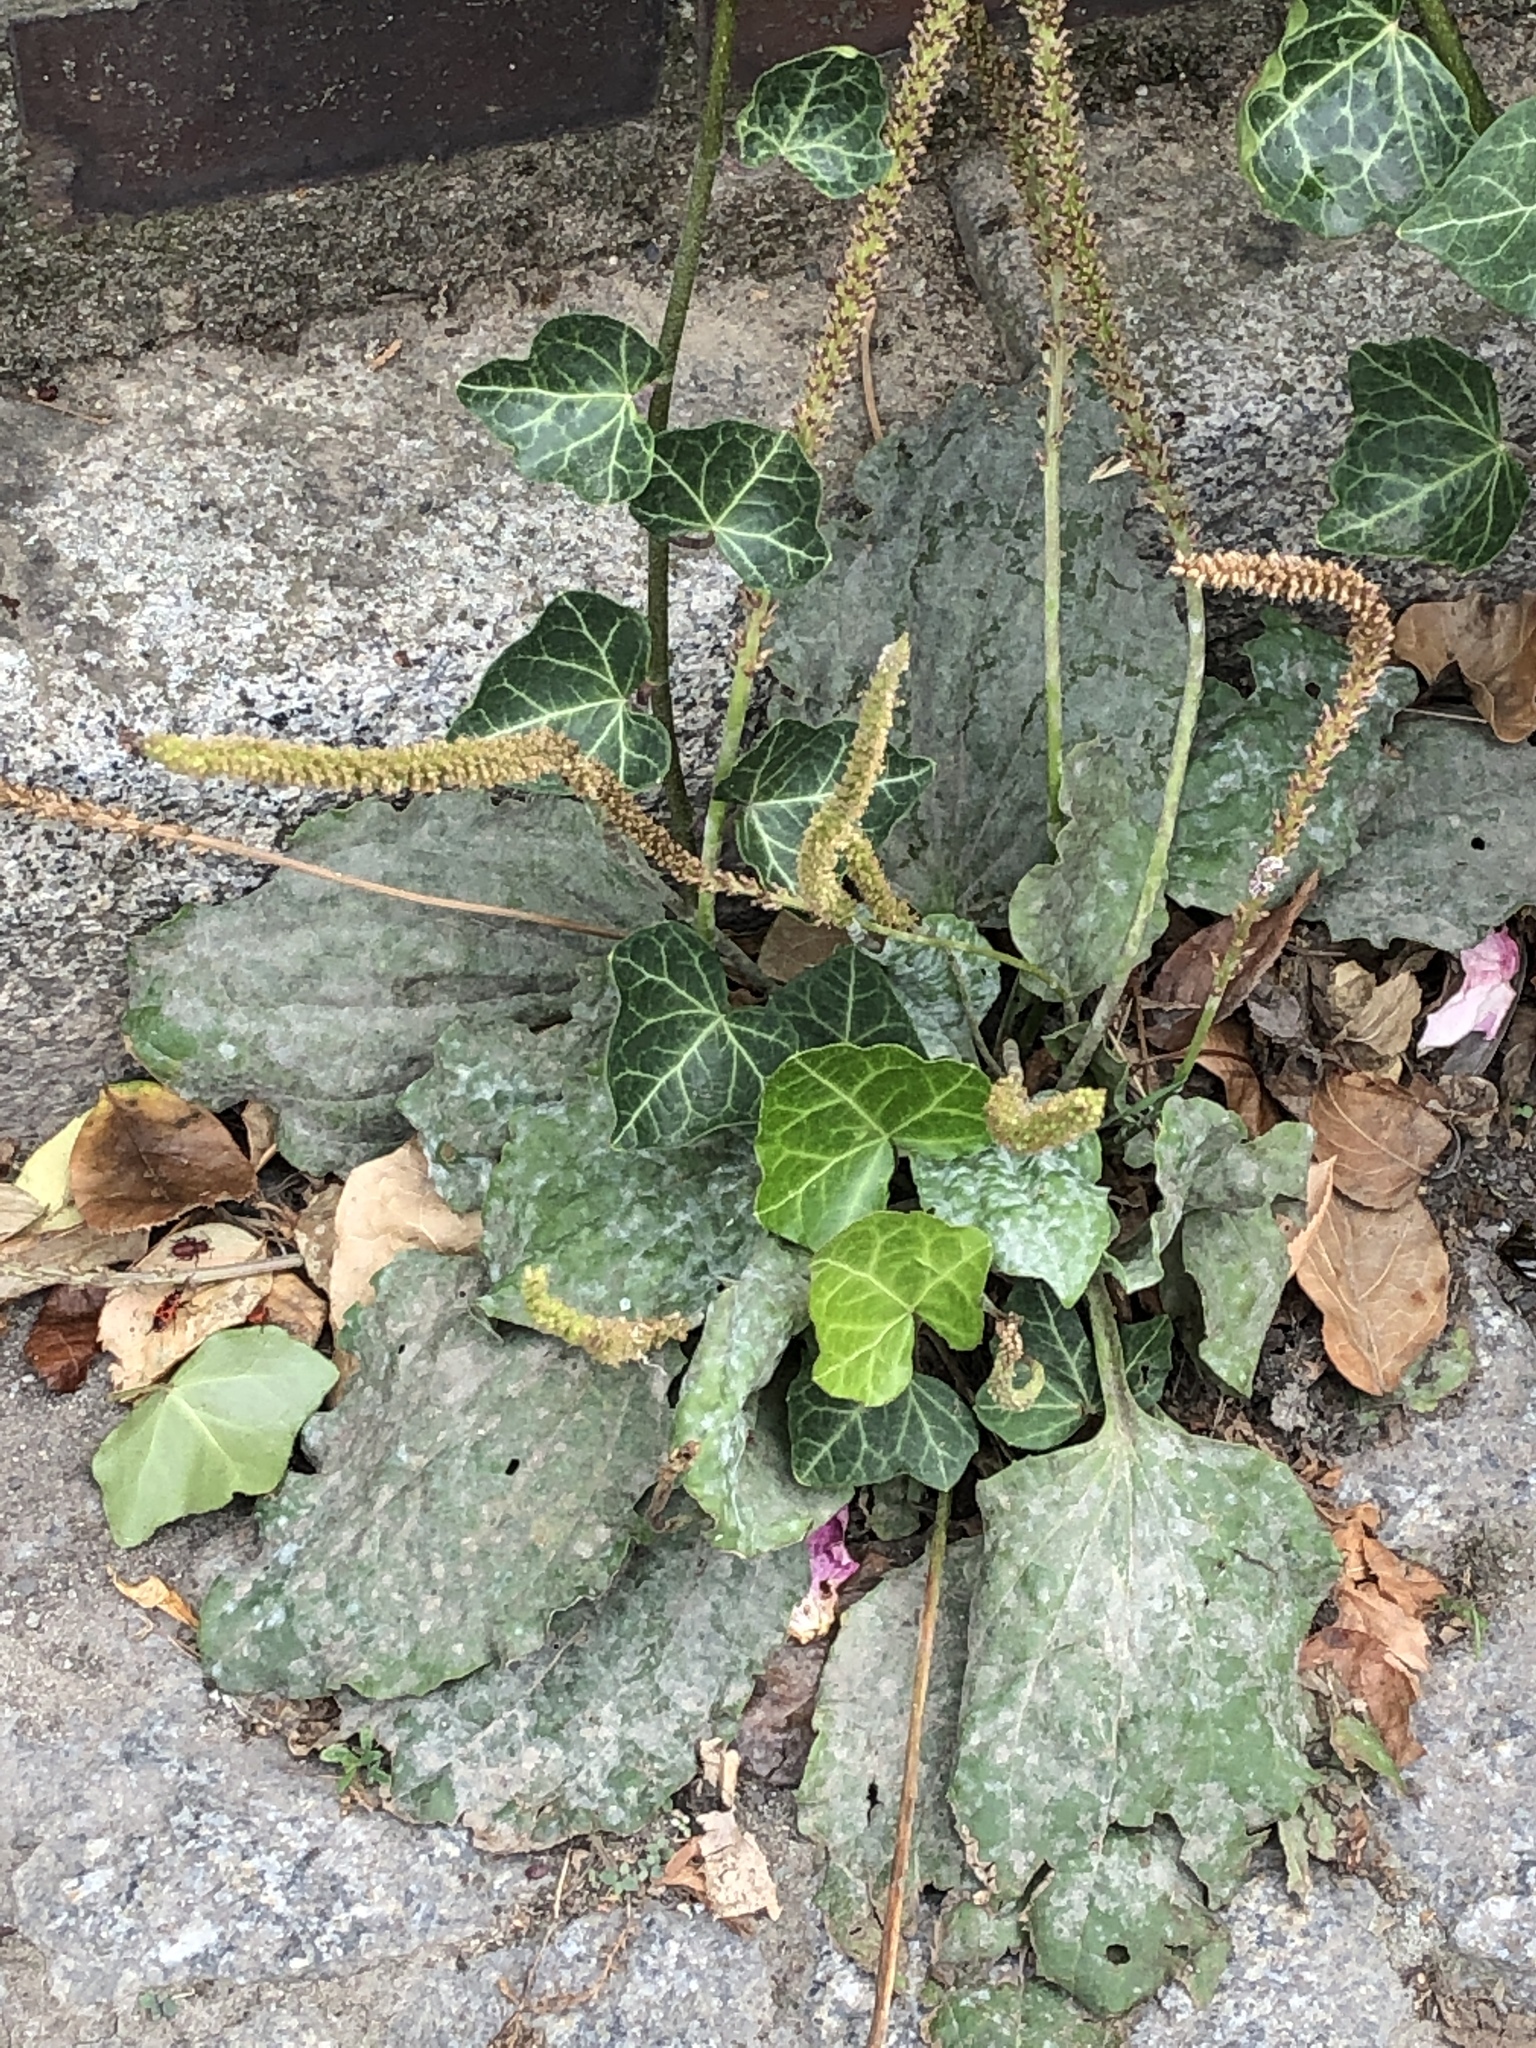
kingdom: Plantae
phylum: Tracheophyta
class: Magnoliopsida
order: Lamiales
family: Plantaginaceae
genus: Plantago
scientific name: Plantago major
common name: Common plantain
